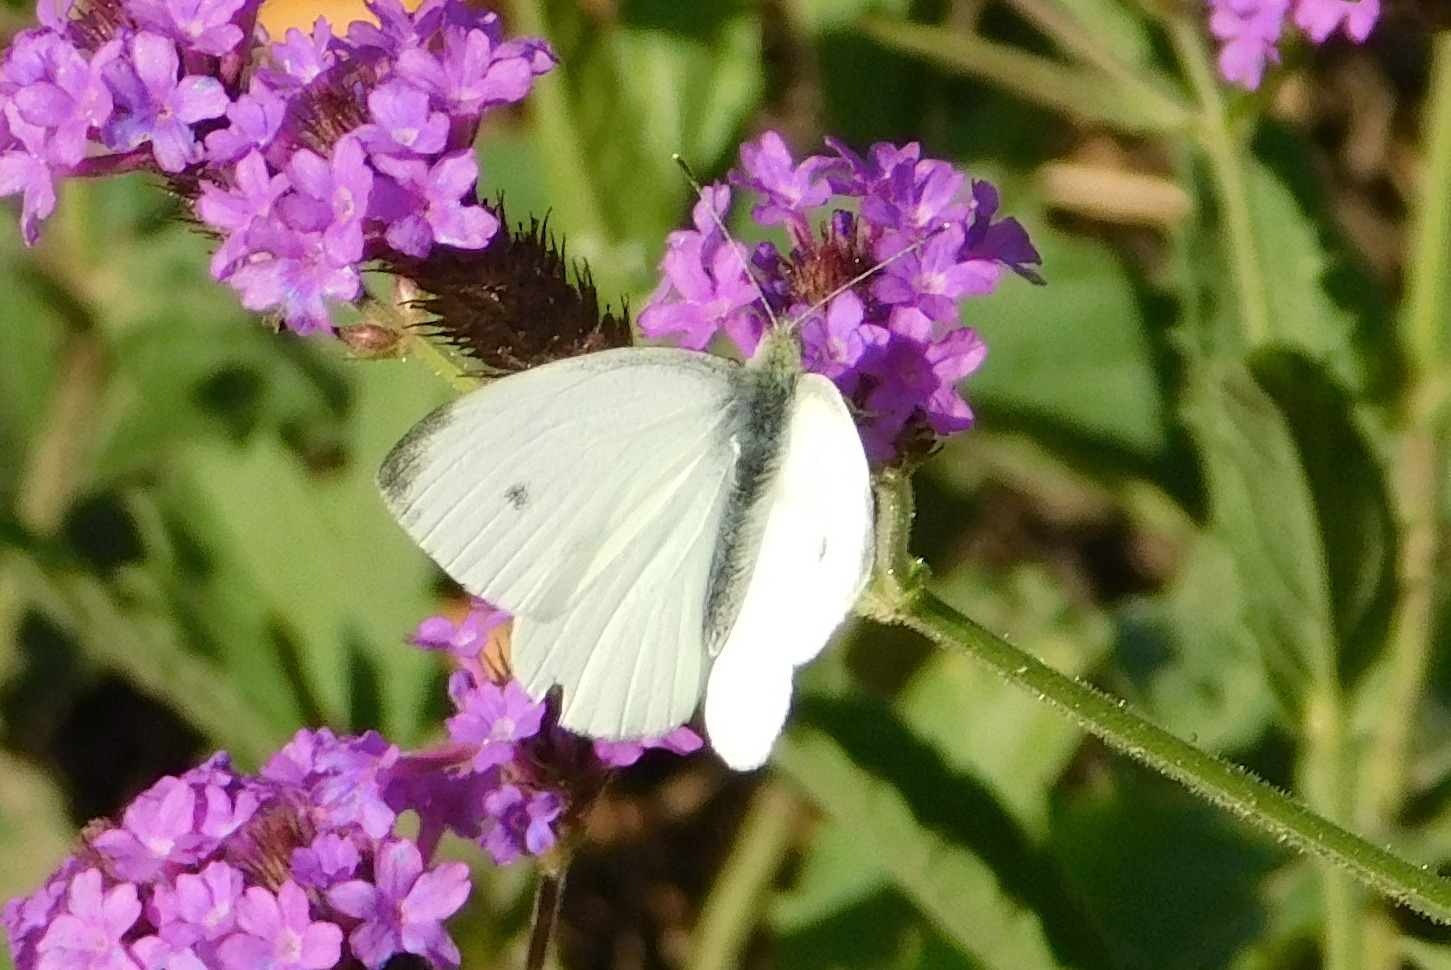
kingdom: Animalia
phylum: Arthropoda
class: Insecta
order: Lepidoptera
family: Pieridae
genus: Pieris
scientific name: Pieris rapae
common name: Small white
